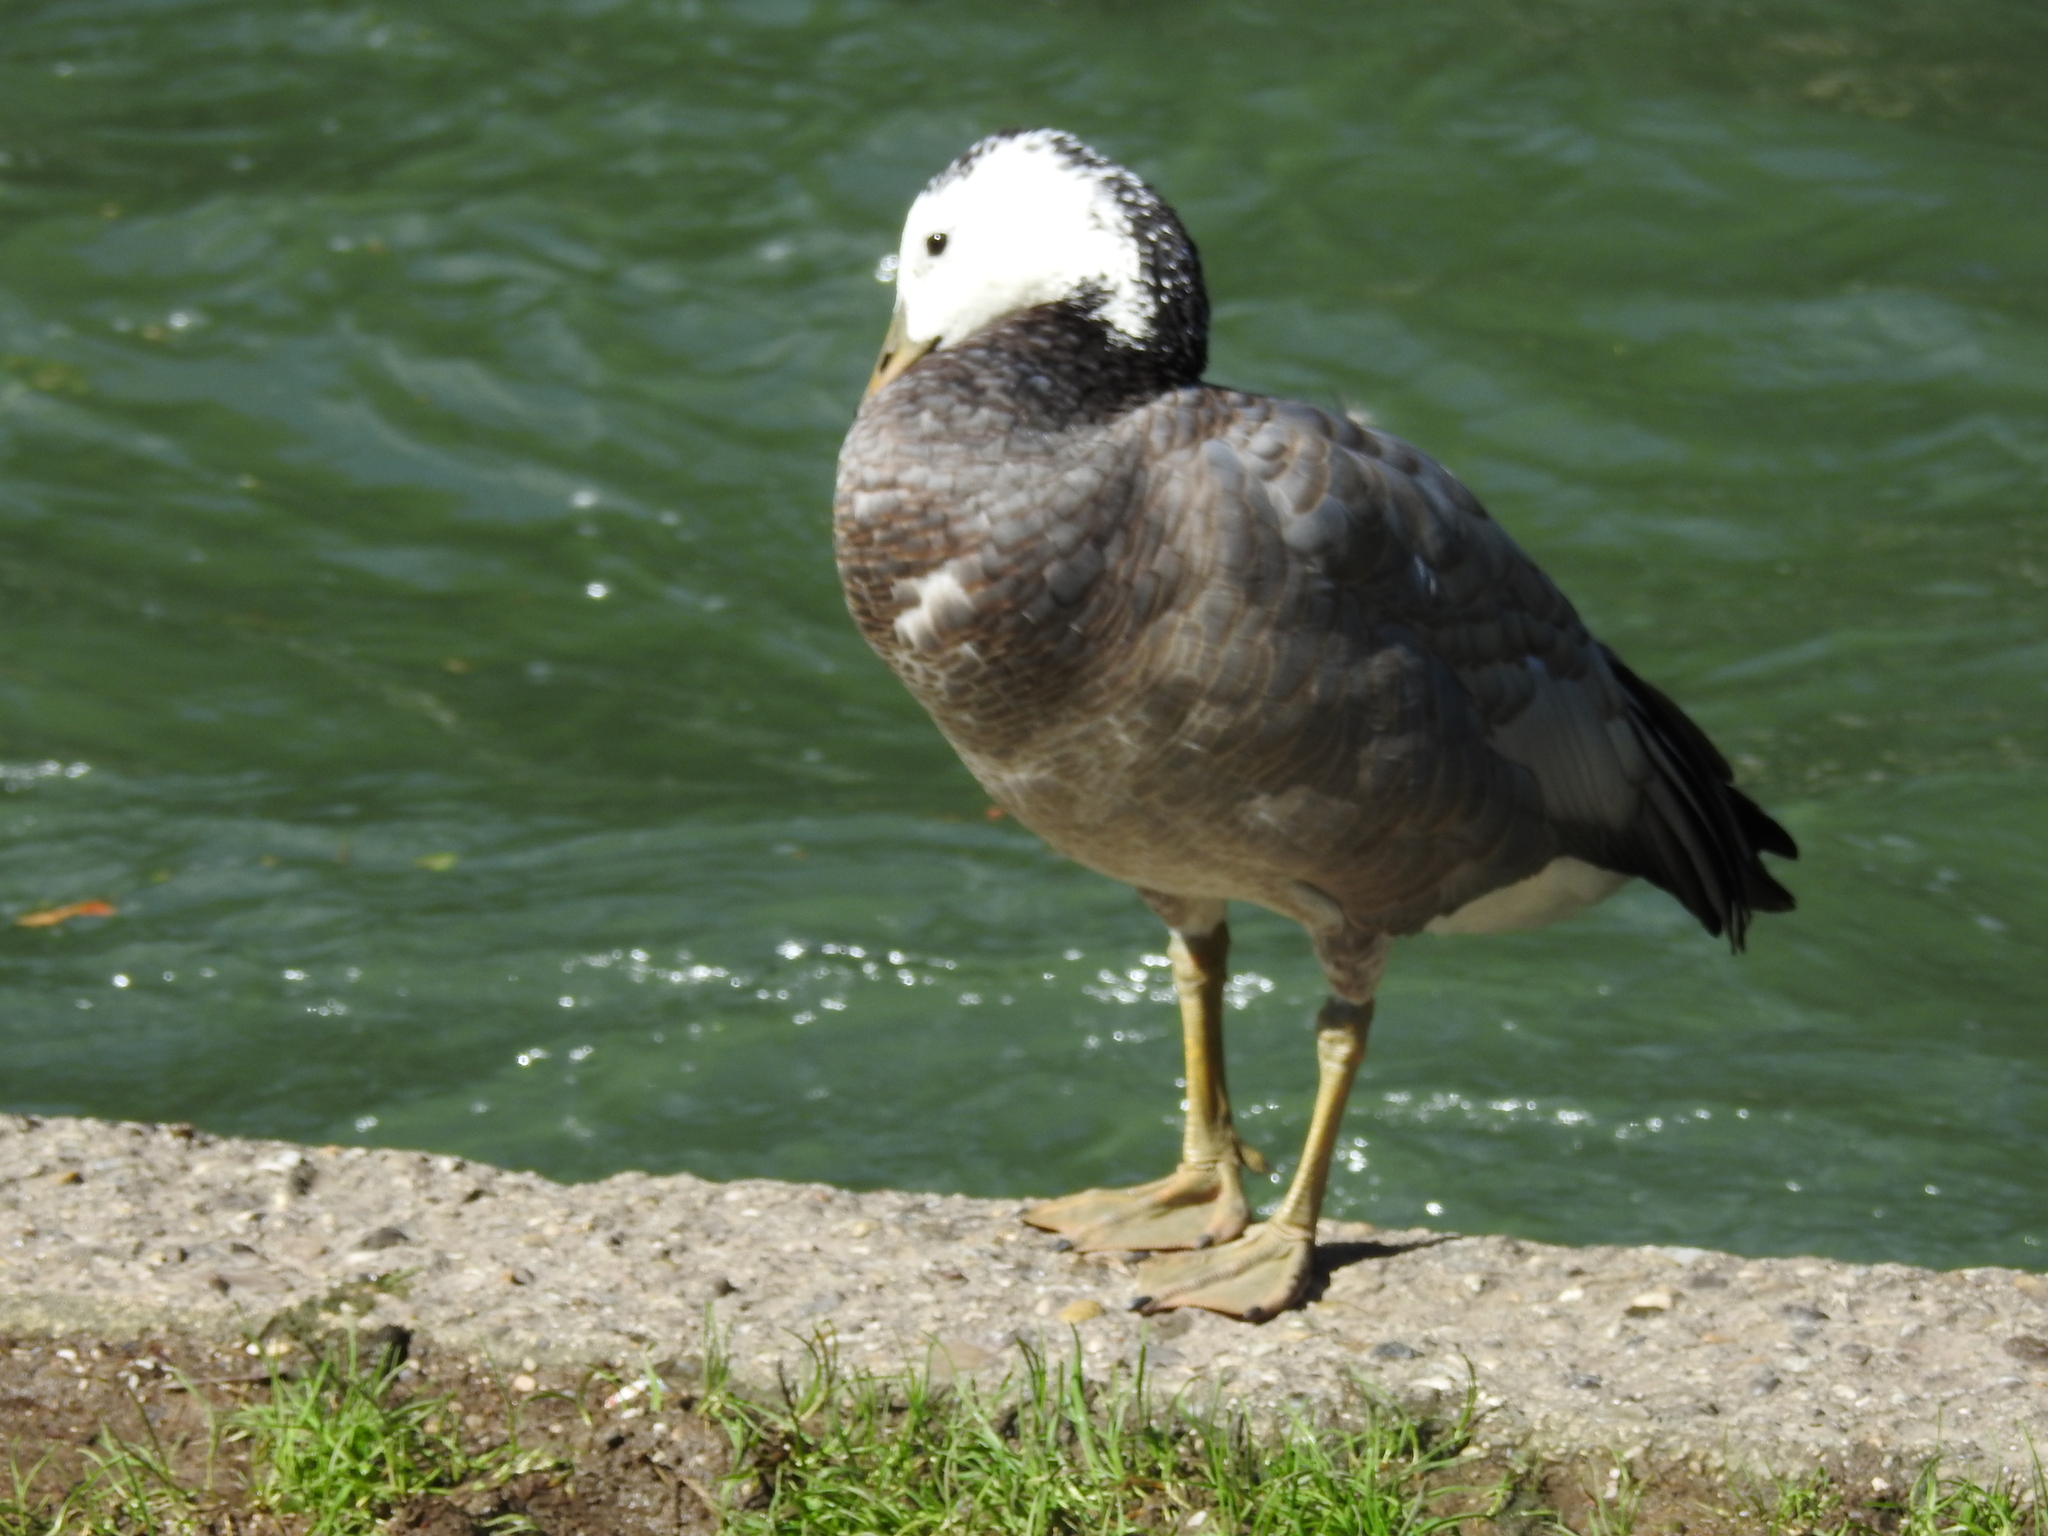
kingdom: Animalia
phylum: Chordata
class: Aves
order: Anseriformes
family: Anatidae
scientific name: Anatidae
